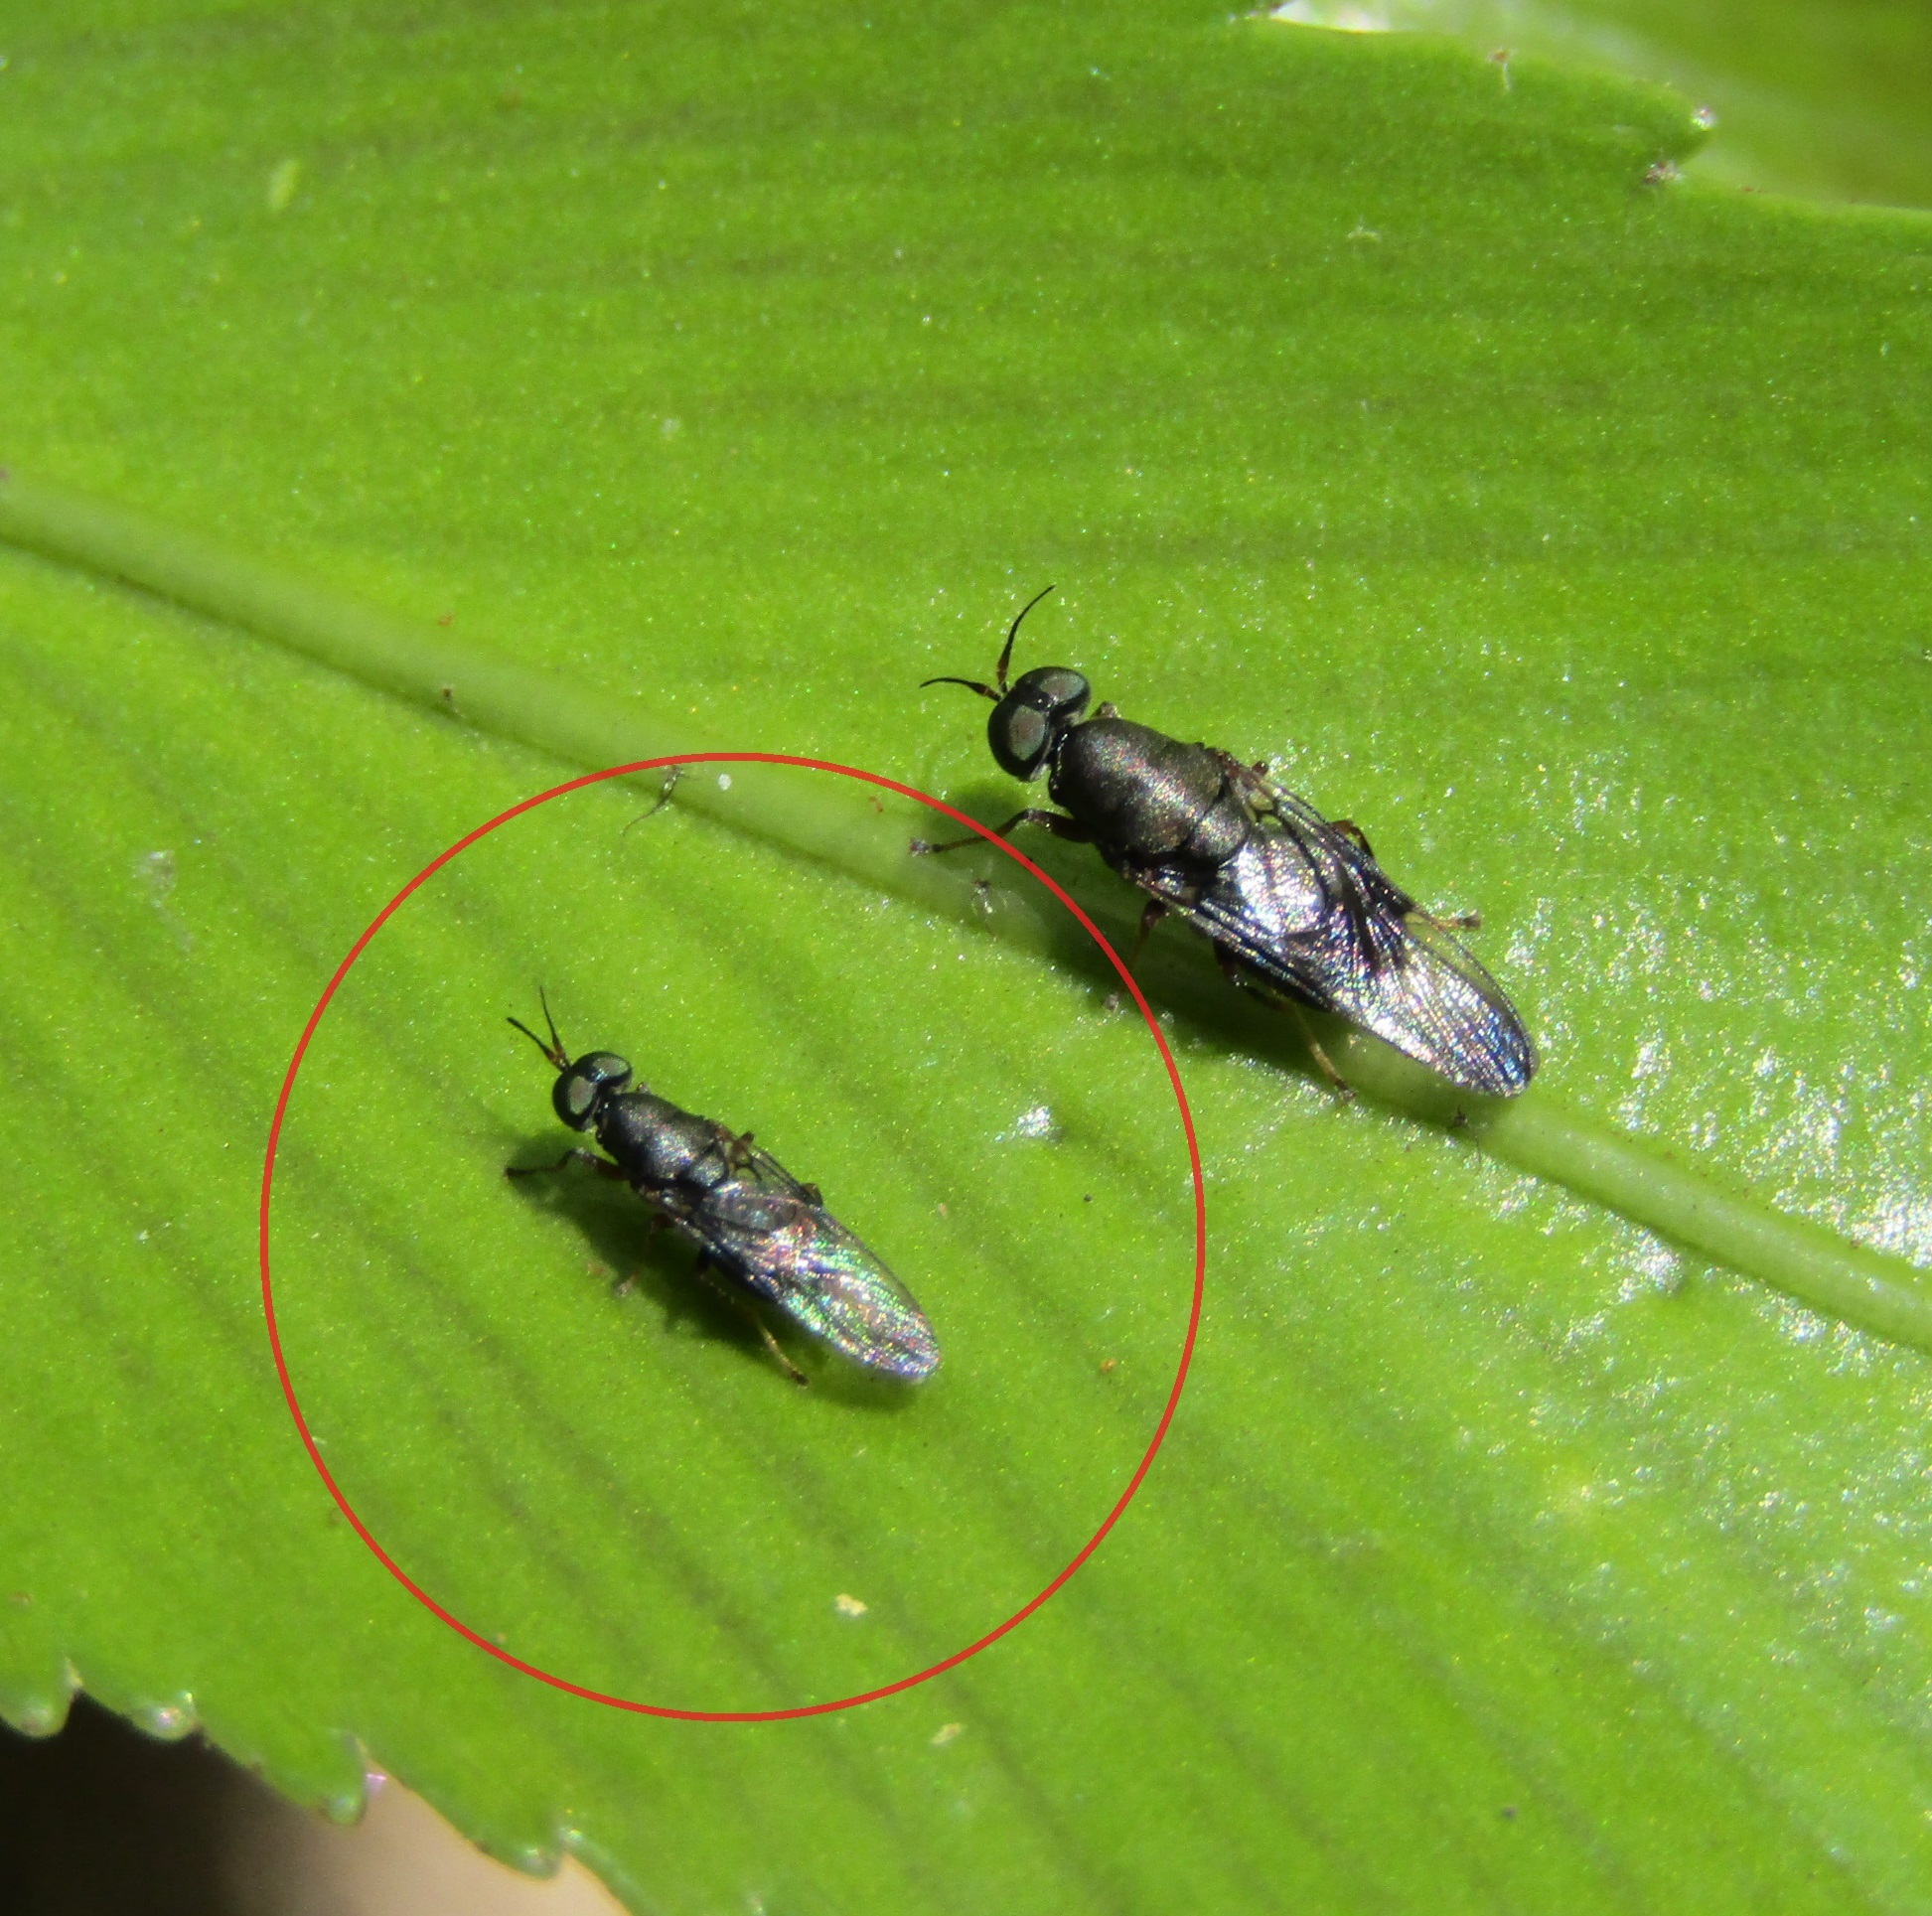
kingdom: Animalia
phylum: Arthropoda
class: Insecta
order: Diptera
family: Stratiomyidae
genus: Dysbiota
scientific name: Dysbiota peregrina
